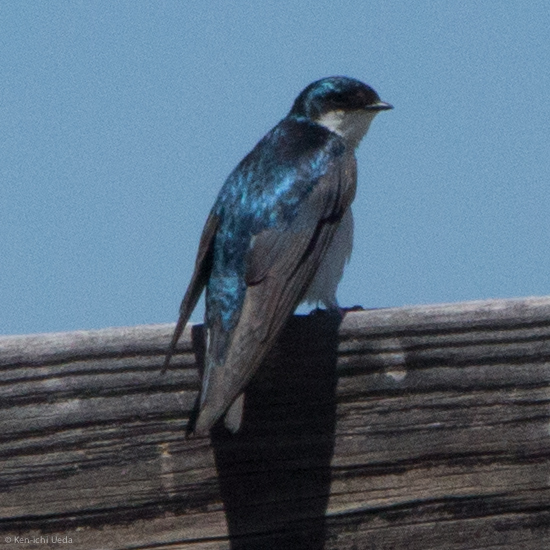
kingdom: Animalia
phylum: Chordata
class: Aves
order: Passeriformes
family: Hirundinidae
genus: Tachycineta
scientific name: Tachycineta bicolor
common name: Tree swallow
